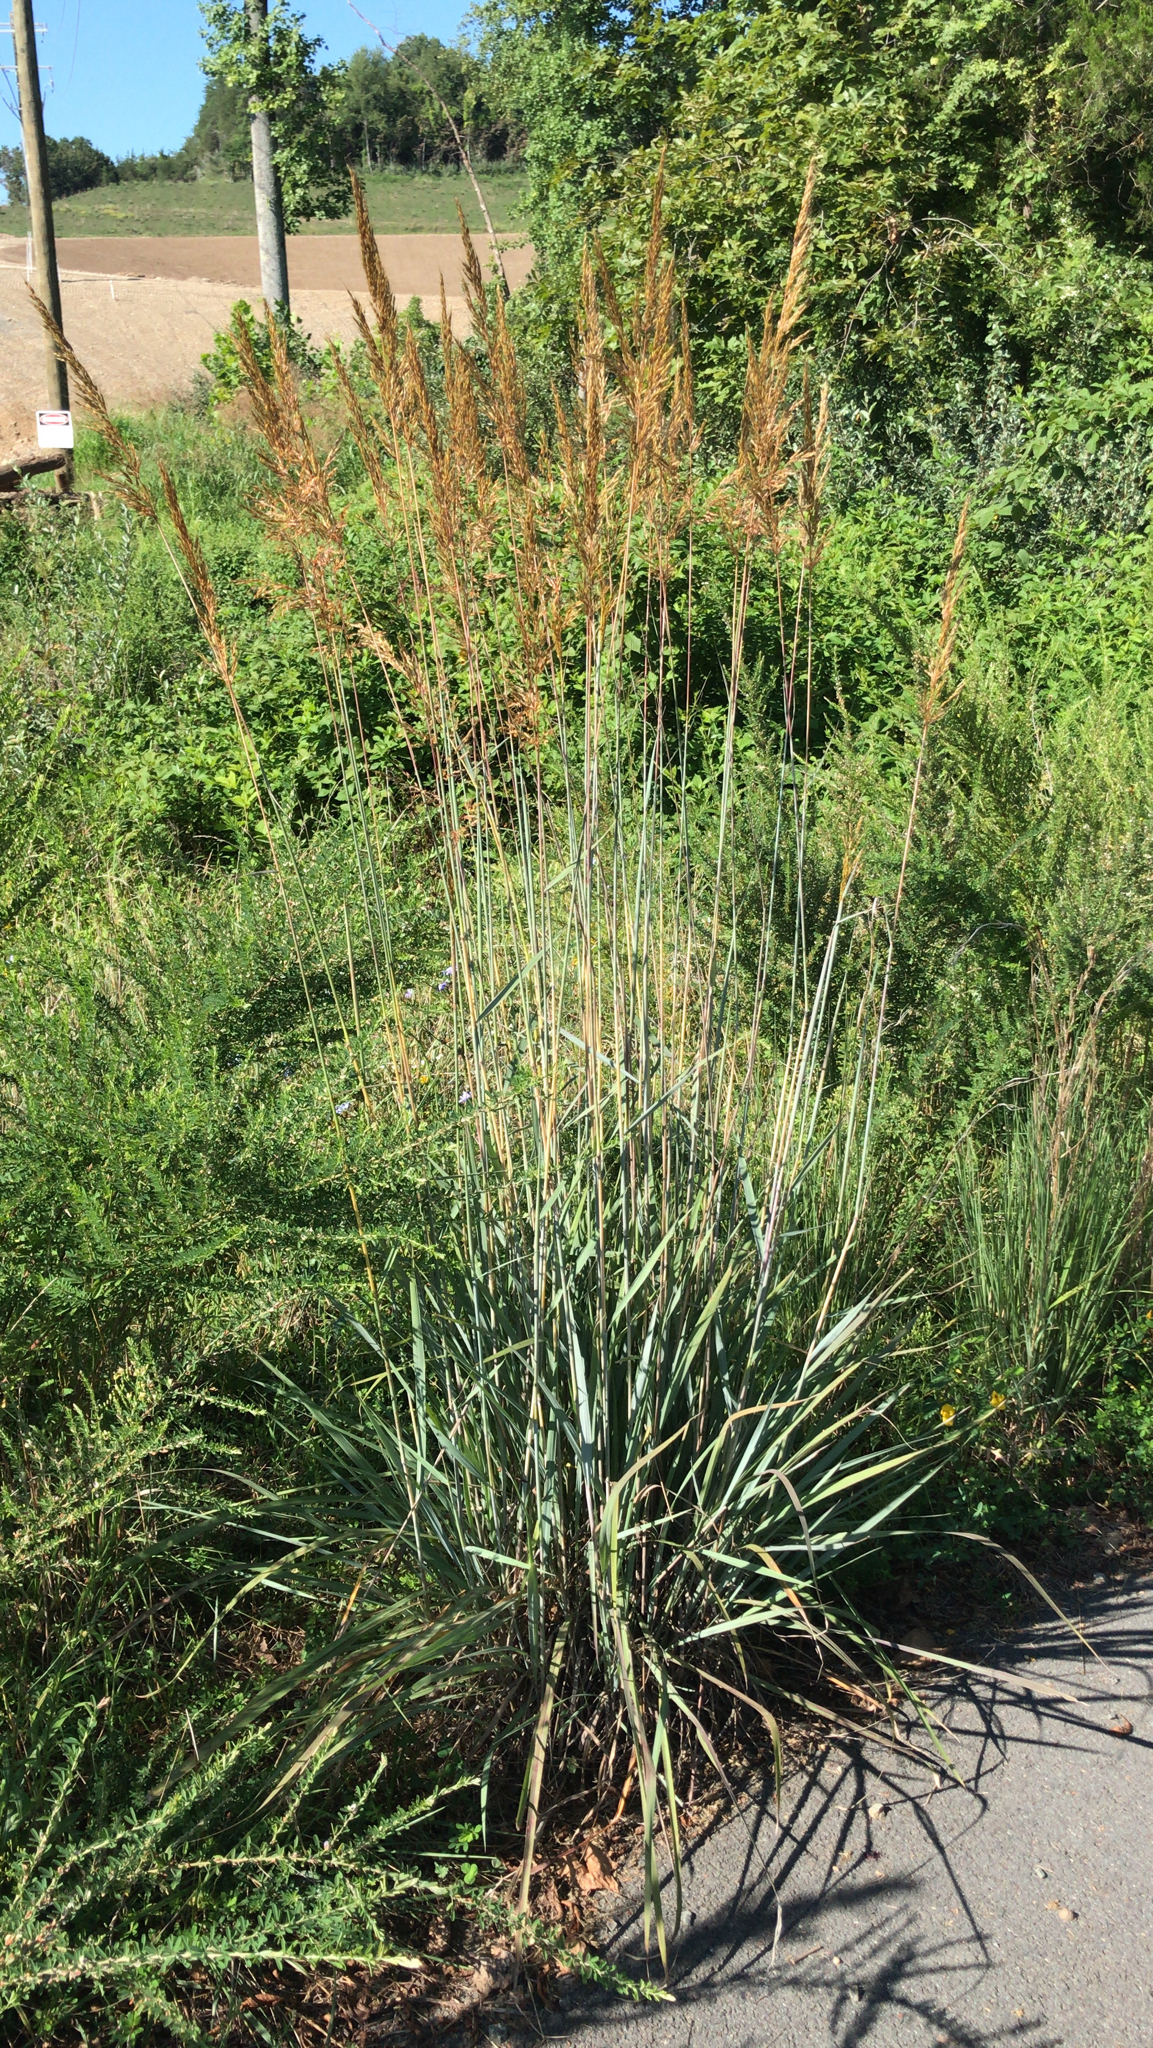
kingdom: Plantae
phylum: Tracheophyta
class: Liliopsida
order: Poales
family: Poaceae
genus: Sorghastrum
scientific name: Sorghastrum nutans
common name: Indian grass
